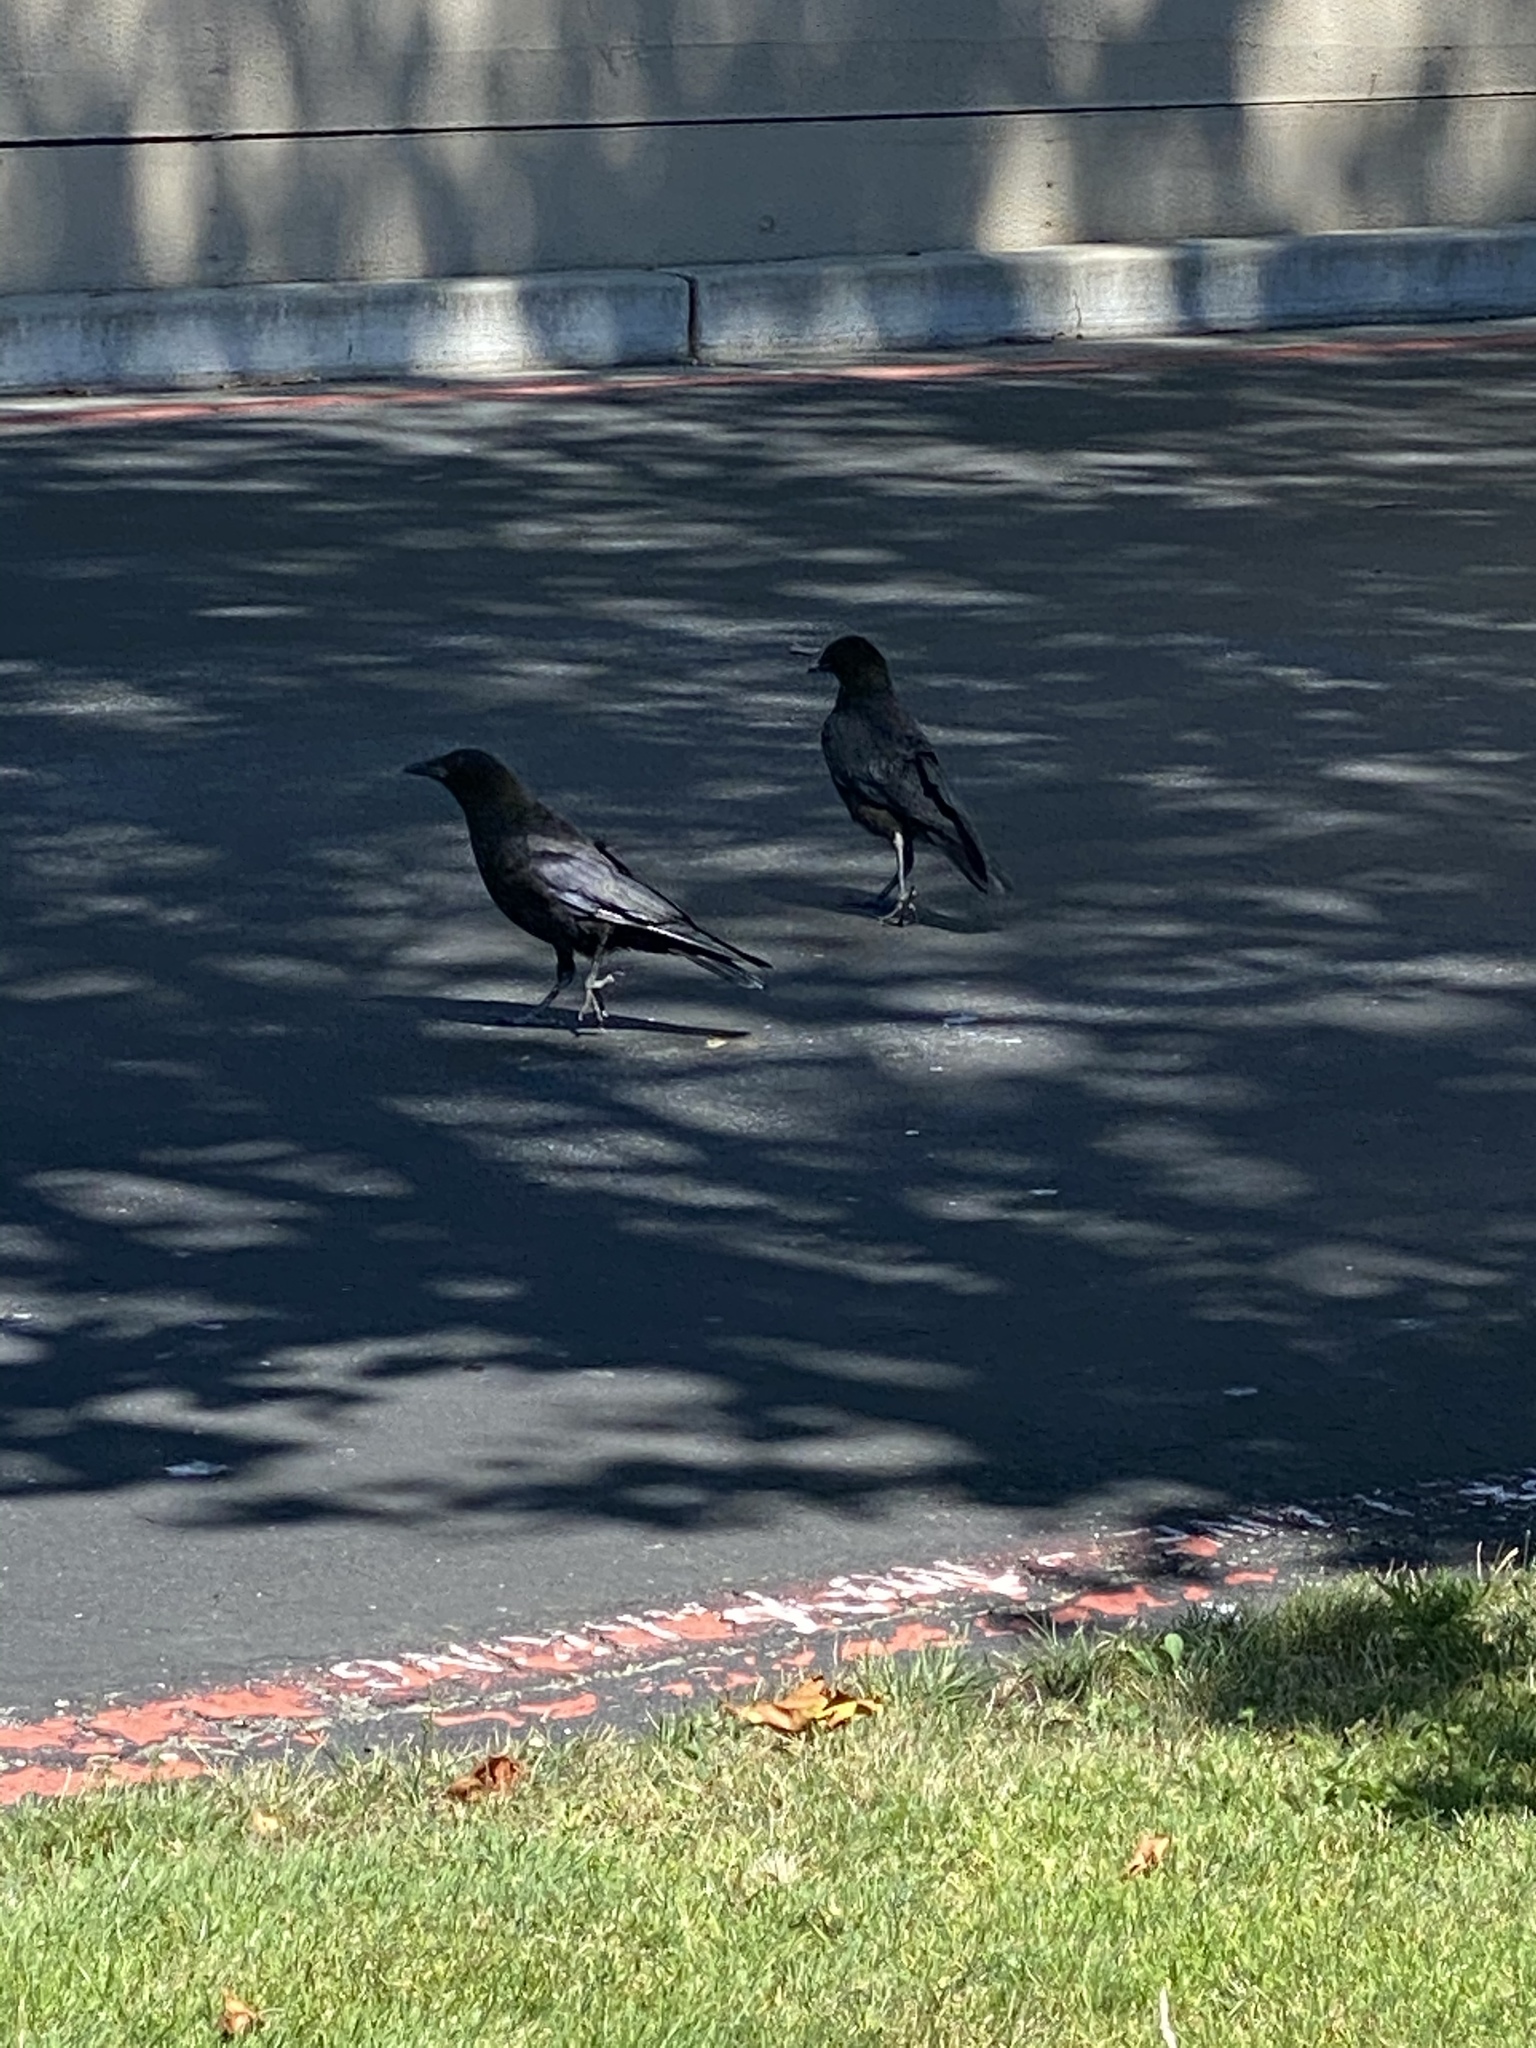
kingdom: Animalia
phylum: Chordata
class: Aves
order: Passeriformes
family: Corvidae
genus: Corvus
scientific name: Corvus brachyrhynchos
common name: American crow
